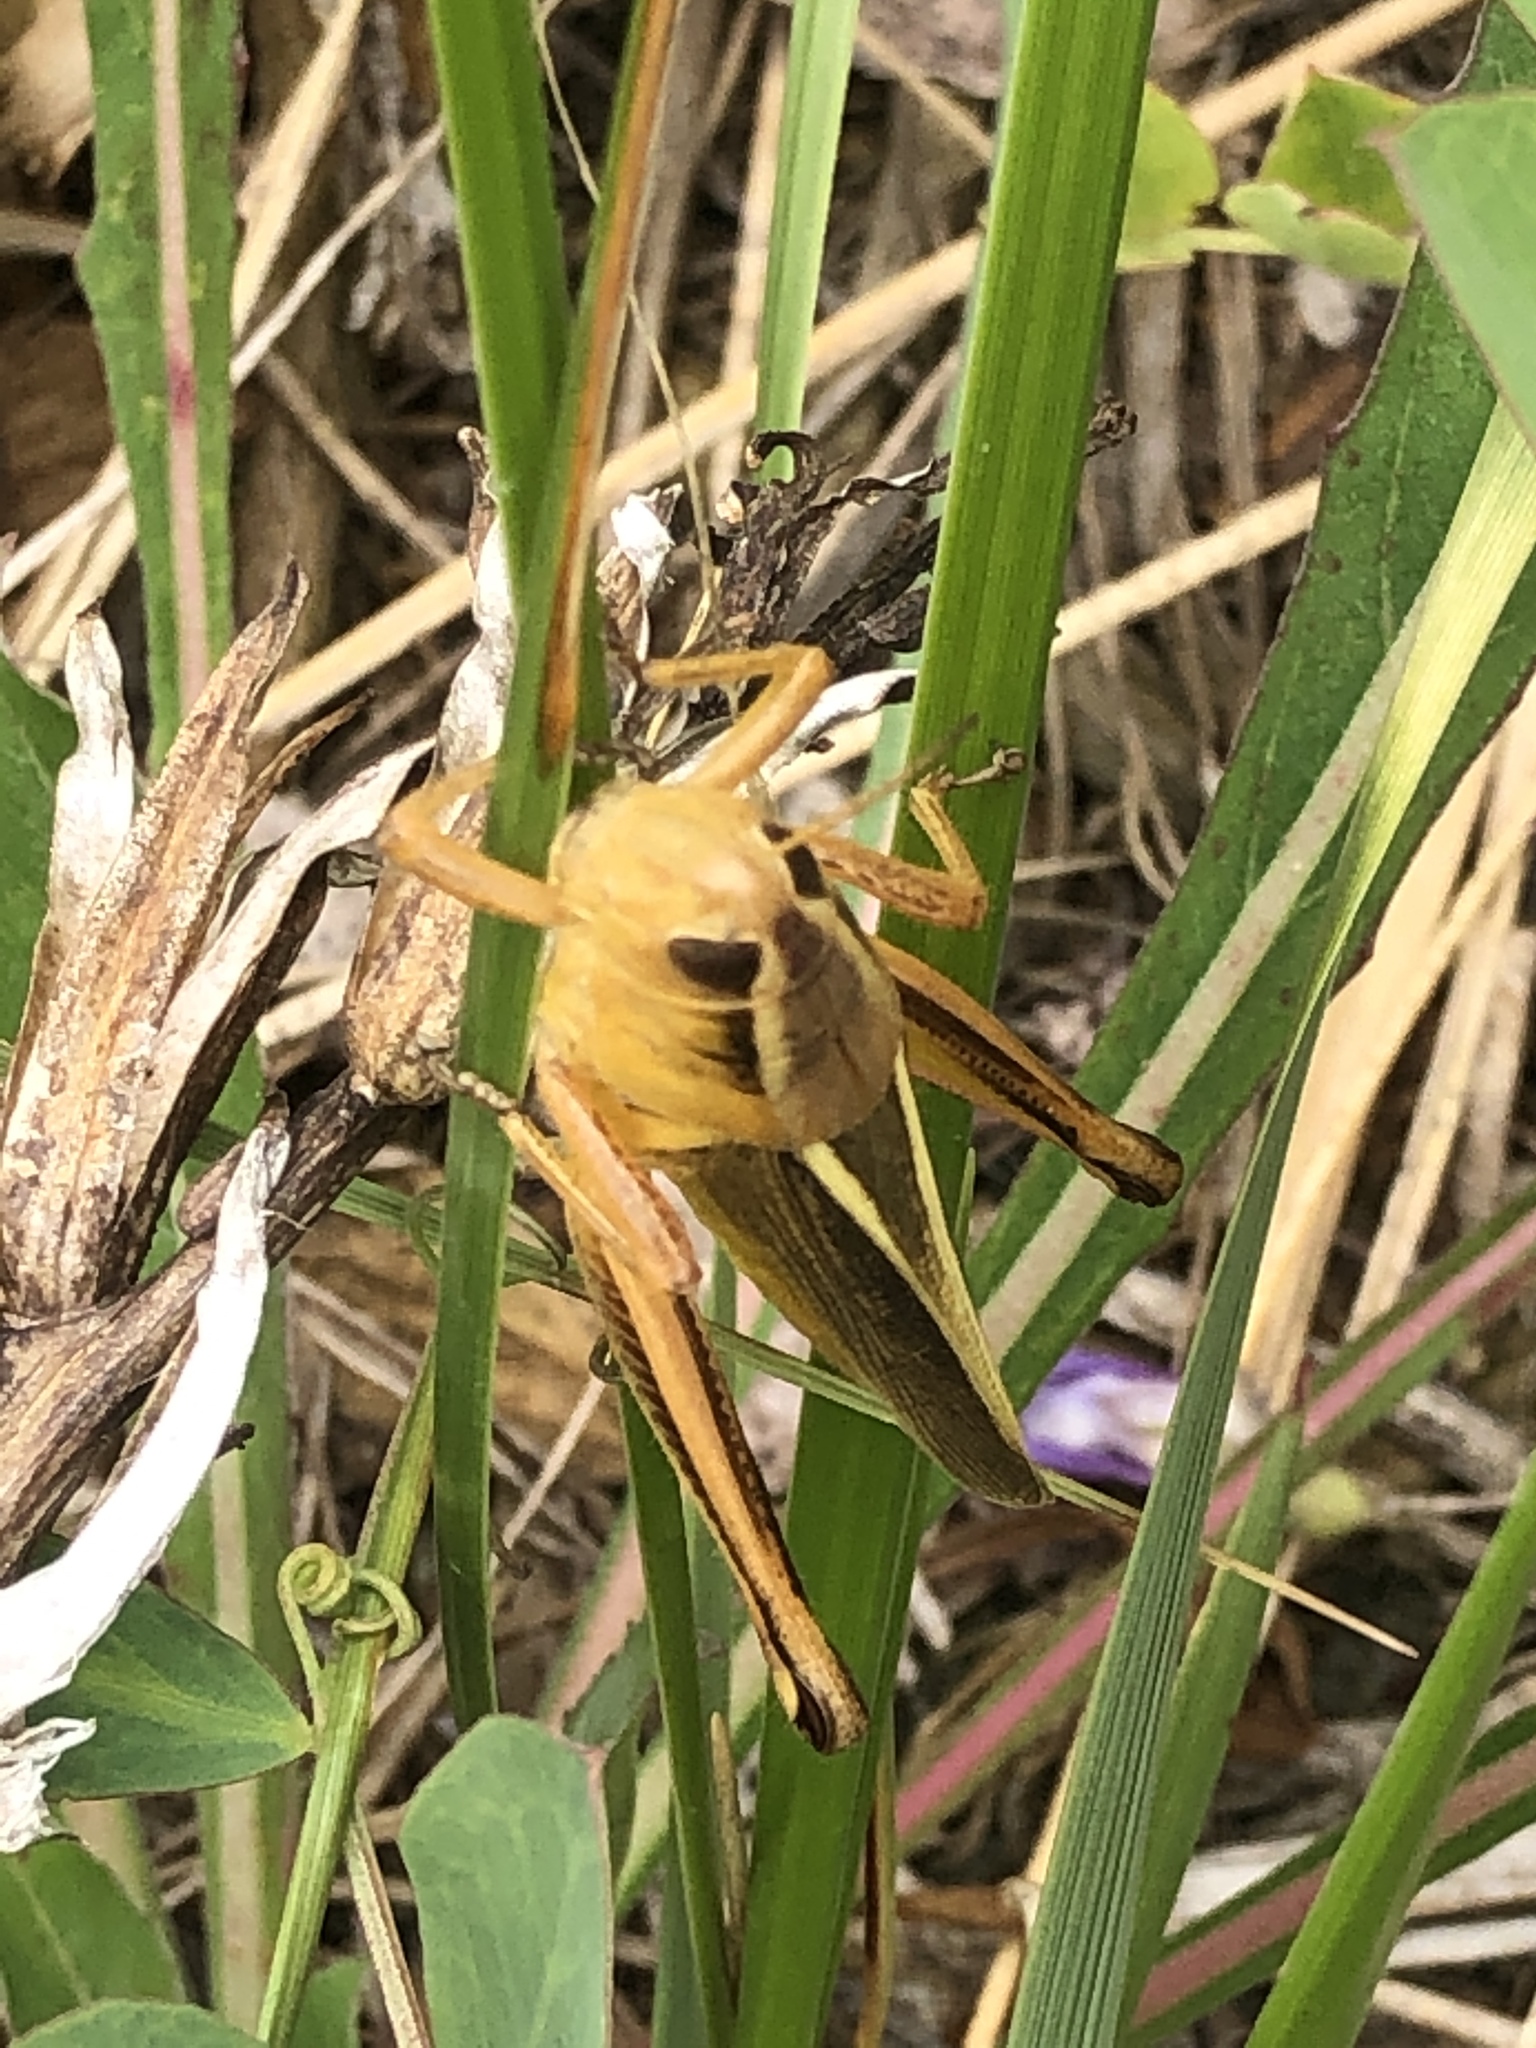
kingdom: Animalia
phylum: Arthropoda
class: Insecta
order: Orthoptera
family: Acrididae
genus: Melanoplus
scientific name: Melanoplus bivittatus
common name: Two-striped grasshopper
